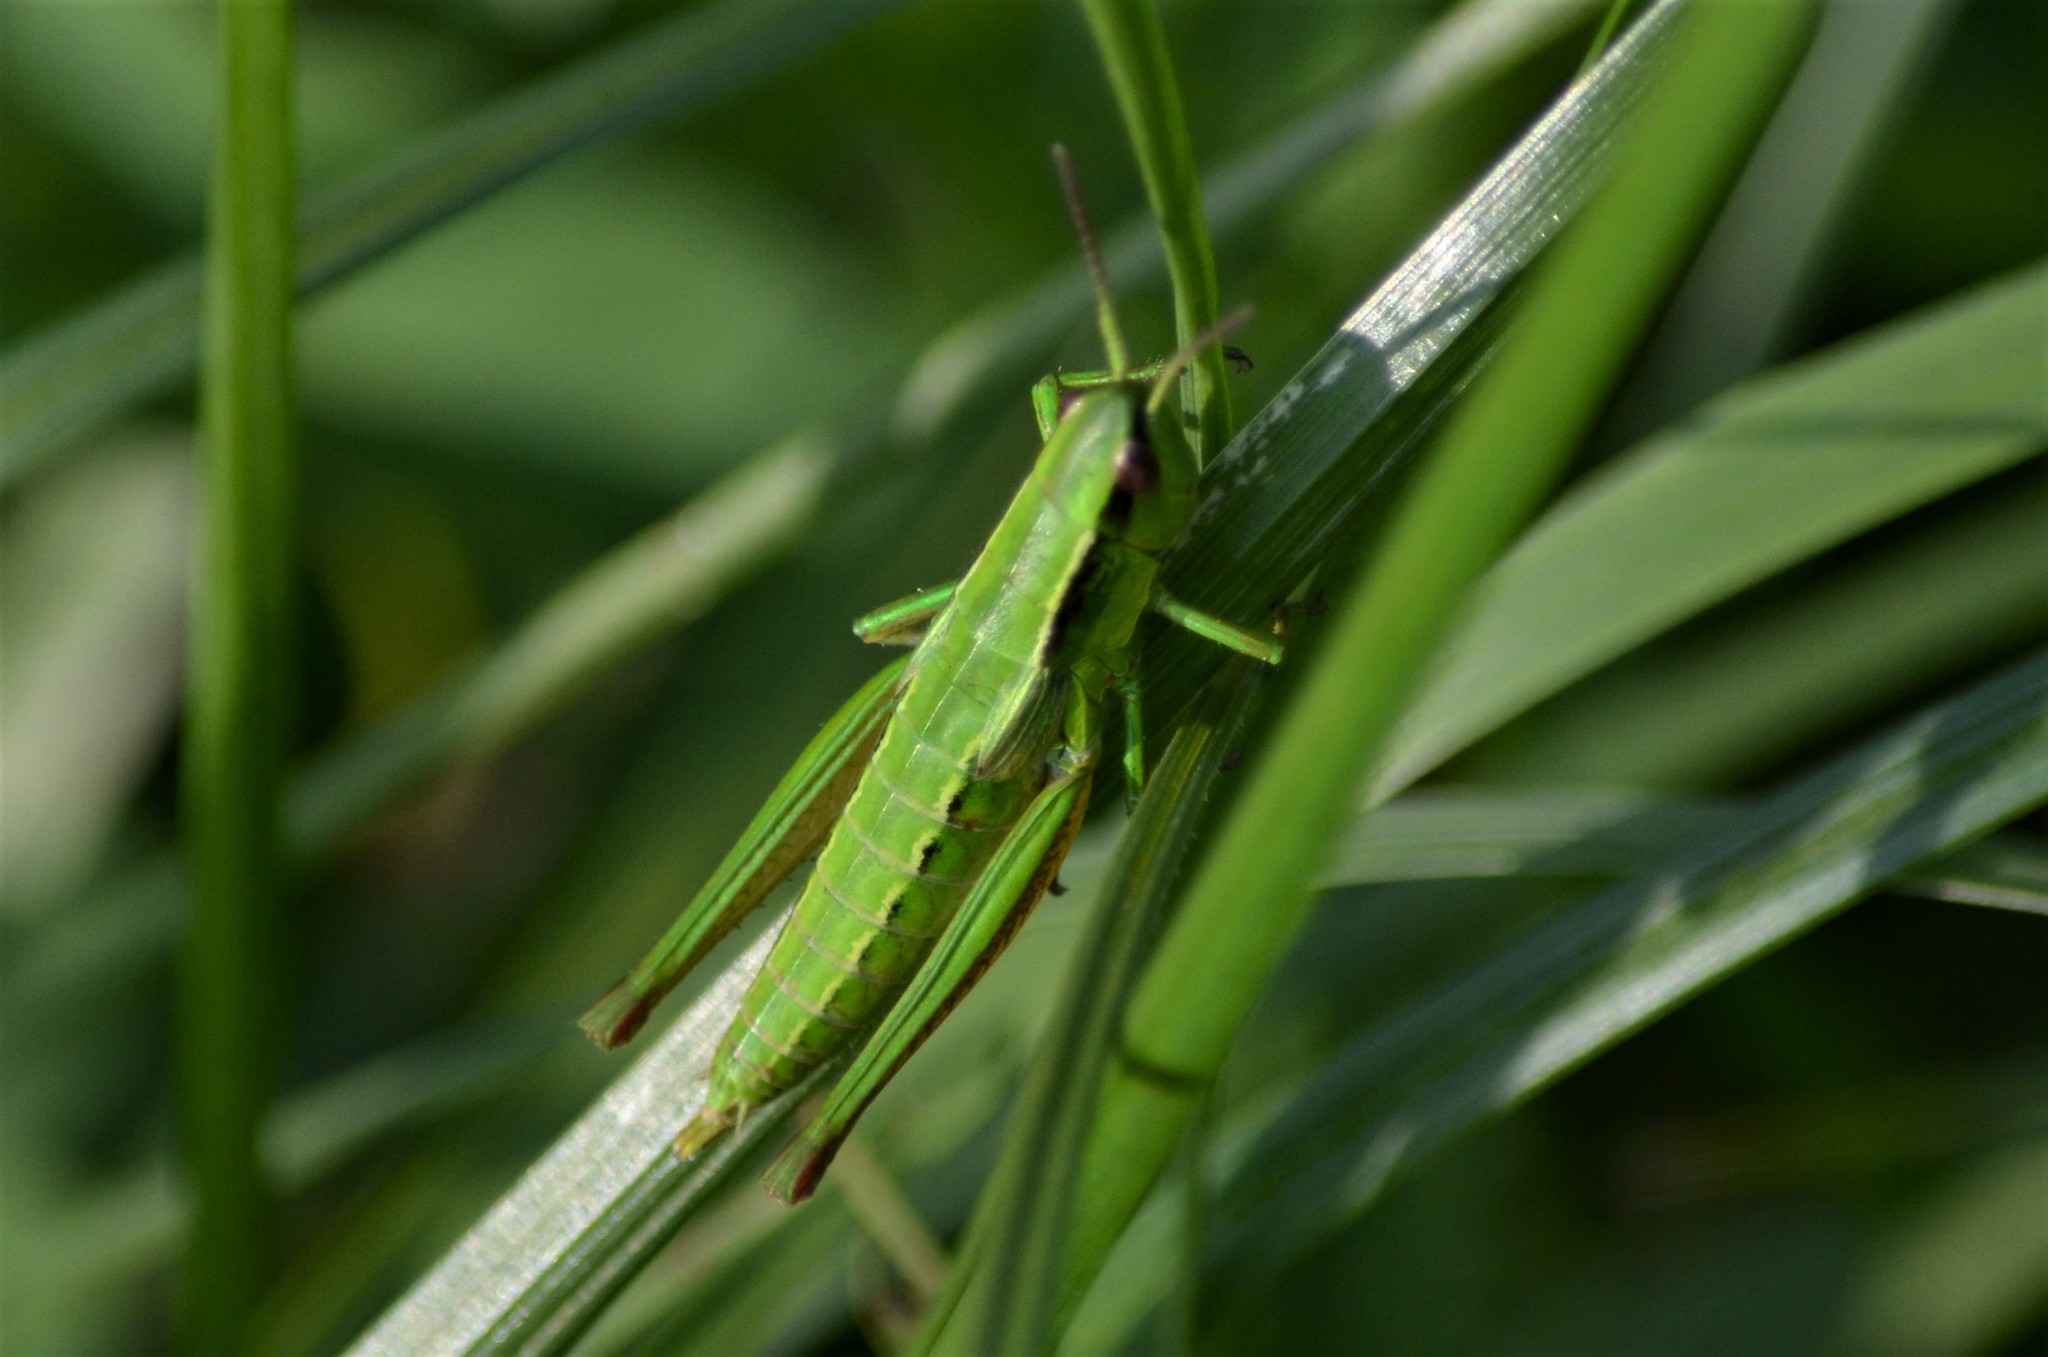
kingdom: Animalia
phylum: Arthropoda
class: Insecta
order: Orthoptera
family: Acrididae
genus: Euthystira
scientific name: Euthystira brachyptera
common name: Small gold grasshopper
